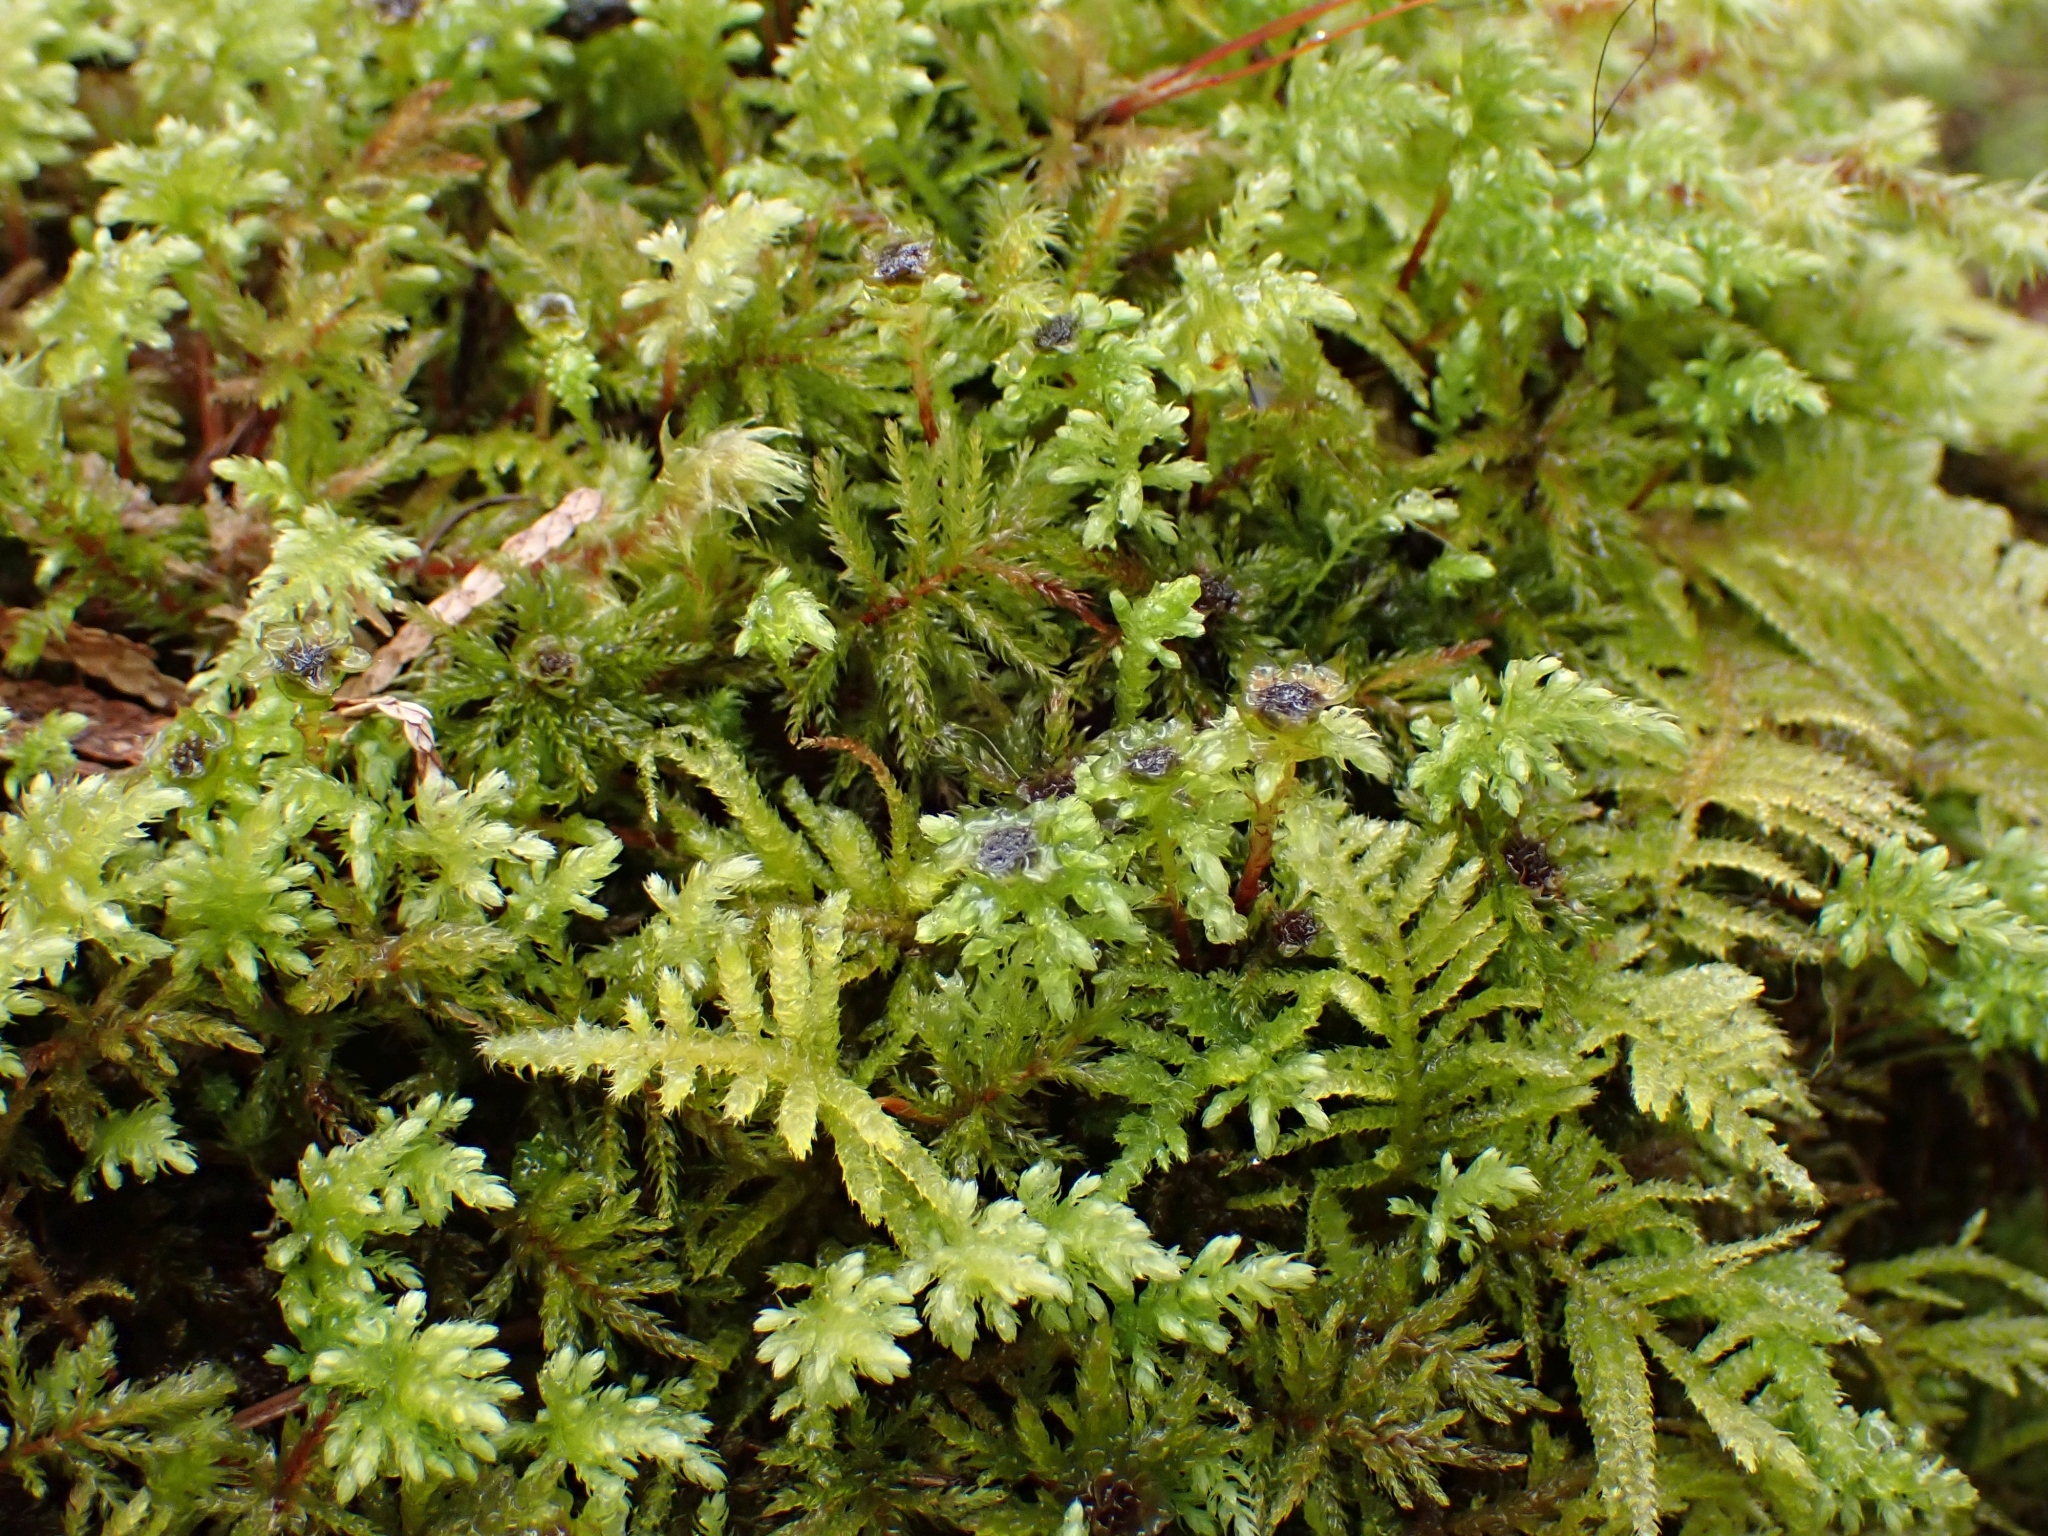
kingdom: Plantae
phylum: Bryophyta
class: Bryopsida
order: Bryales
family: Mniaceae
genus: Leucolepis
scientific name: Leucolepis acanthoneura
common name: Leucolepis umbrella moss
